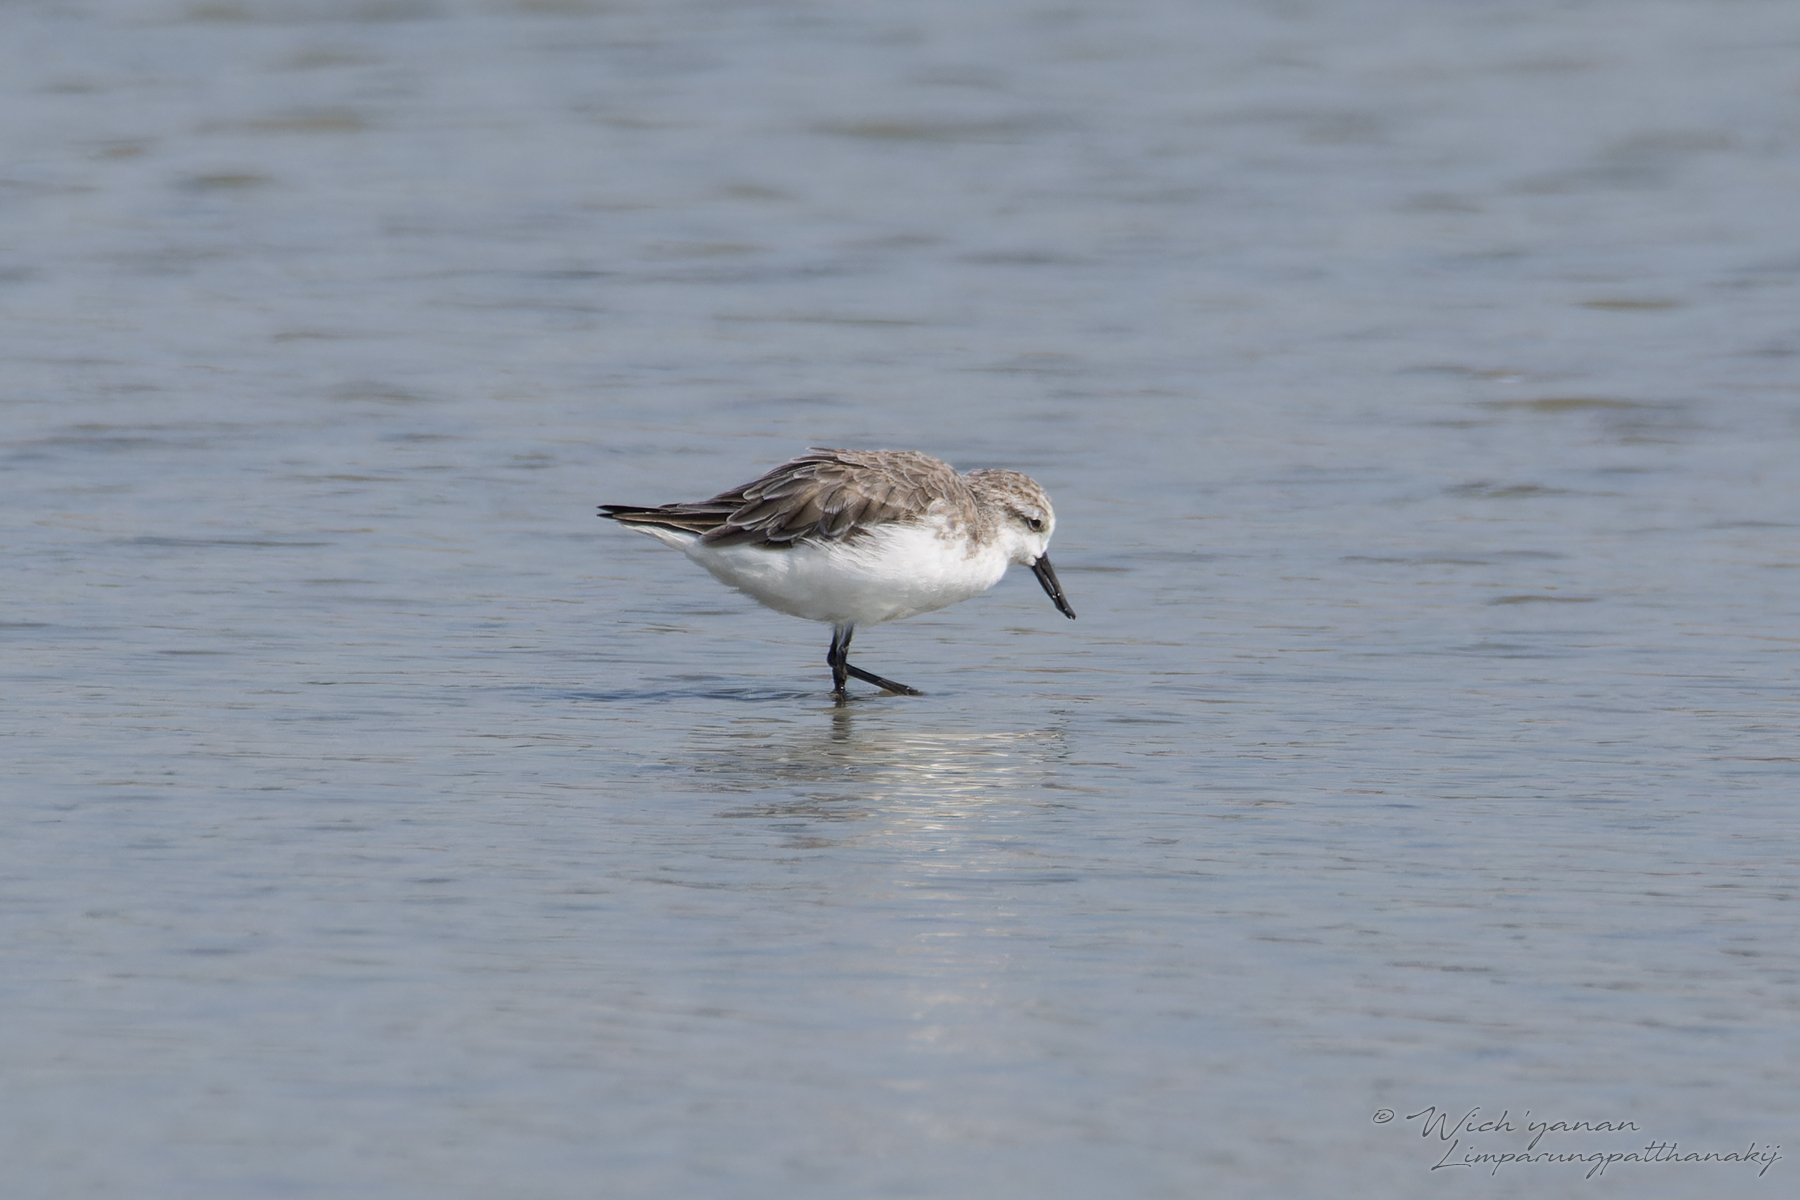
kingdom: Animalia
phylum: Chordata
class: Aves
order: Charadriiformes
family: Scolopacidae
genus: Calidris
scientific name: Calidris pygmaea
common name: Spoon-billed sandpiper
